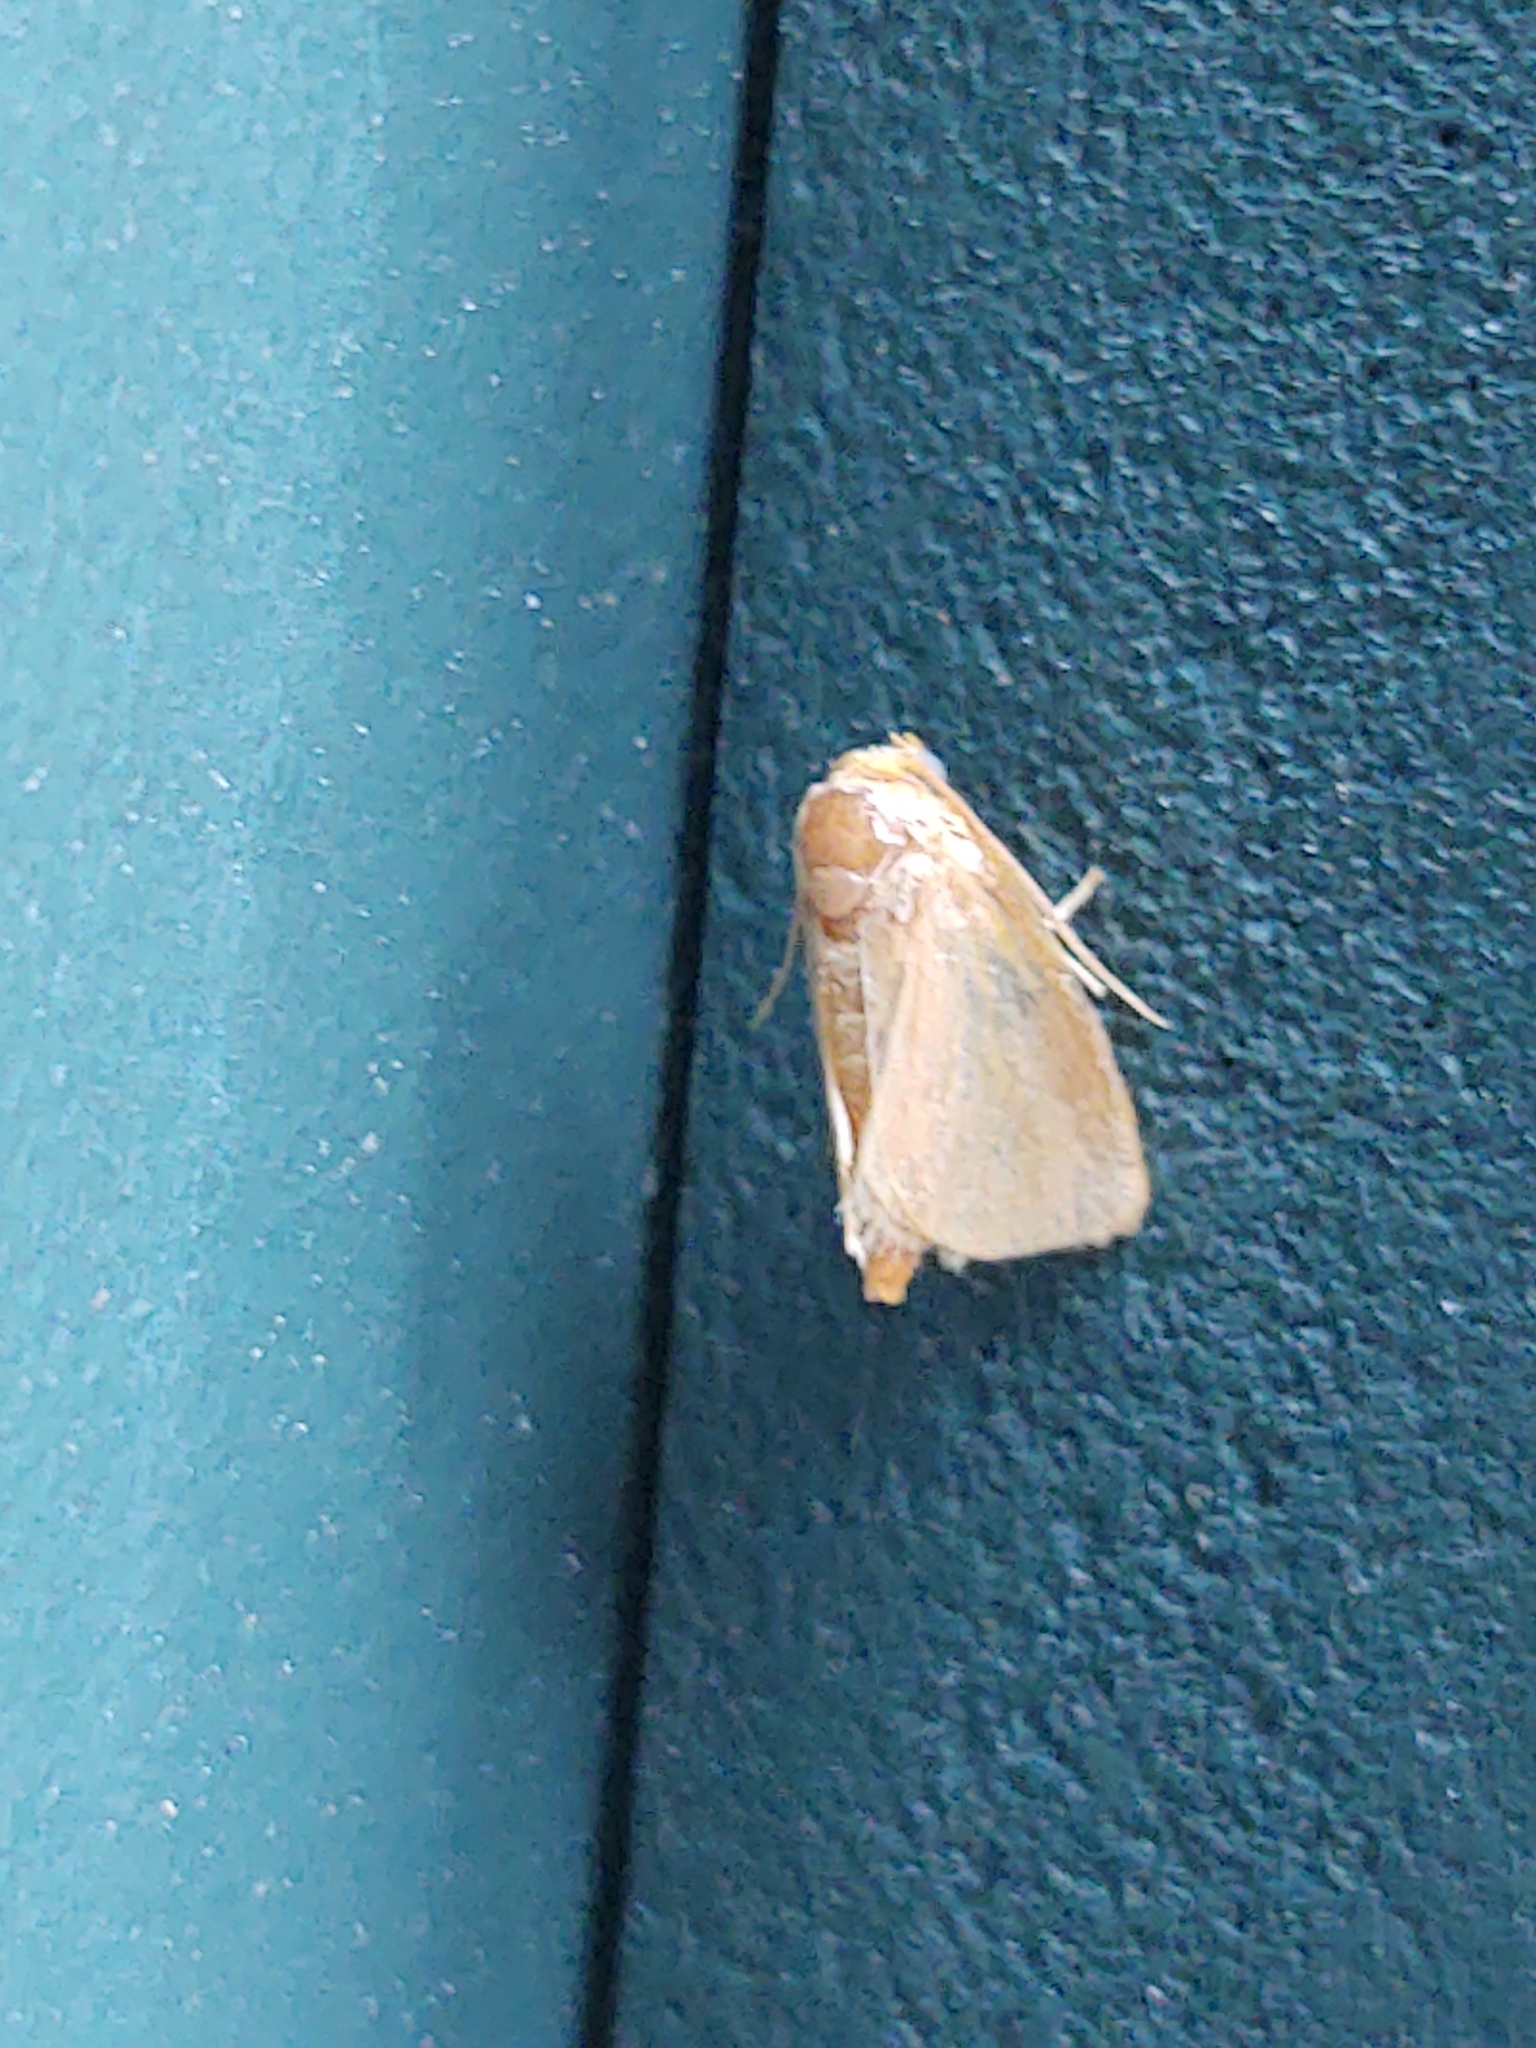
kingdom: Animalia
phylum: Arthropoda
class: Insecta
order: Lepidoptera
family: Limacodidae
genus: Tortricidia
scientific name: Tortricidia pallida
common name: Red-crossed button slug moth
